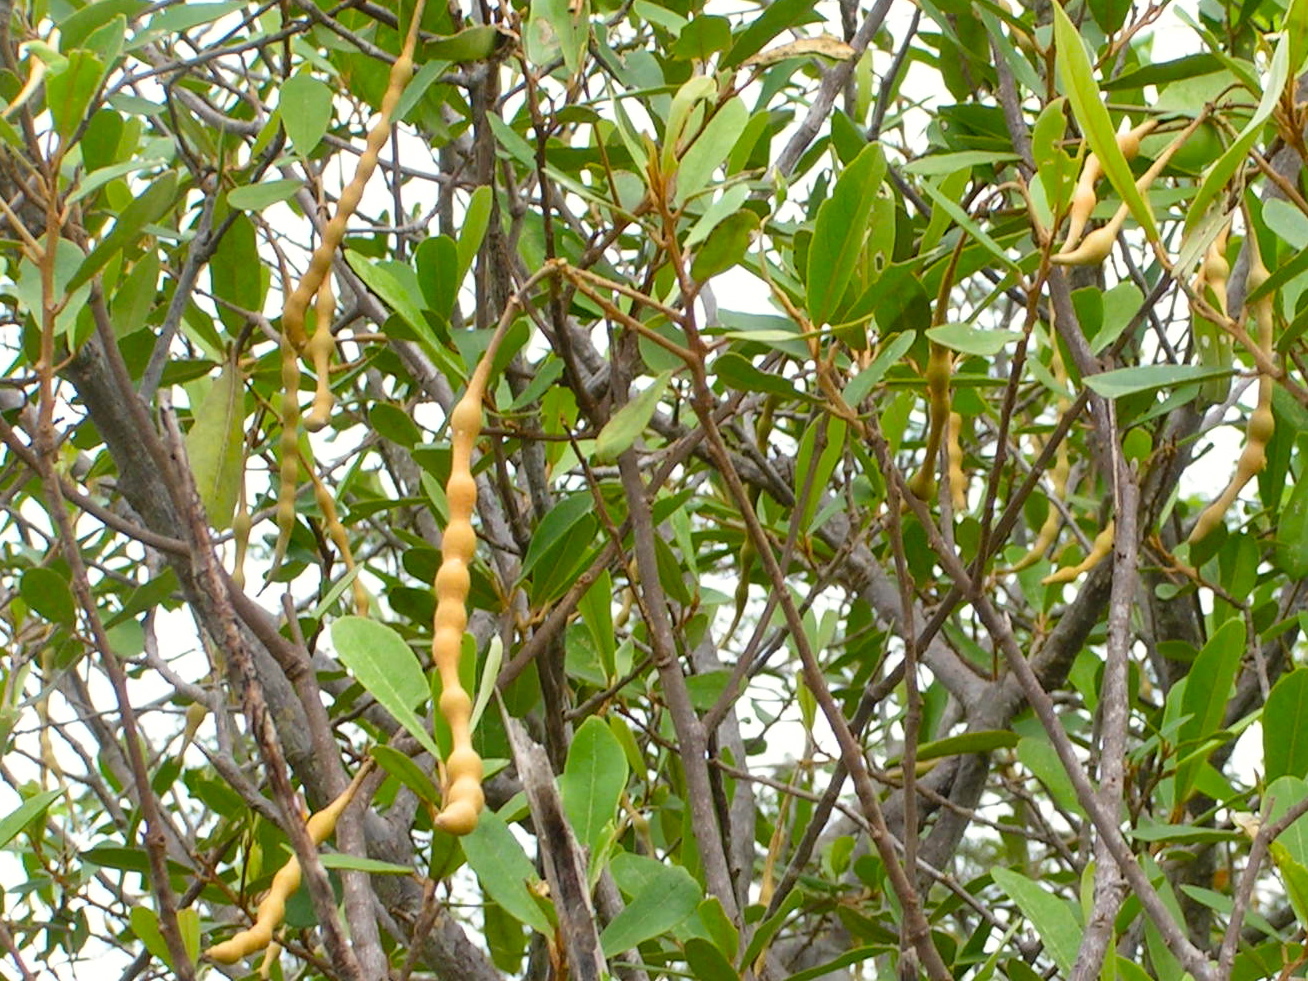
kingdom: Plantae
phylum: Tracheophyta
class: Magnoliopsida
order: Brassicales
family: Capparaceae
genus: Quadrella
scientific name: Quadrella
